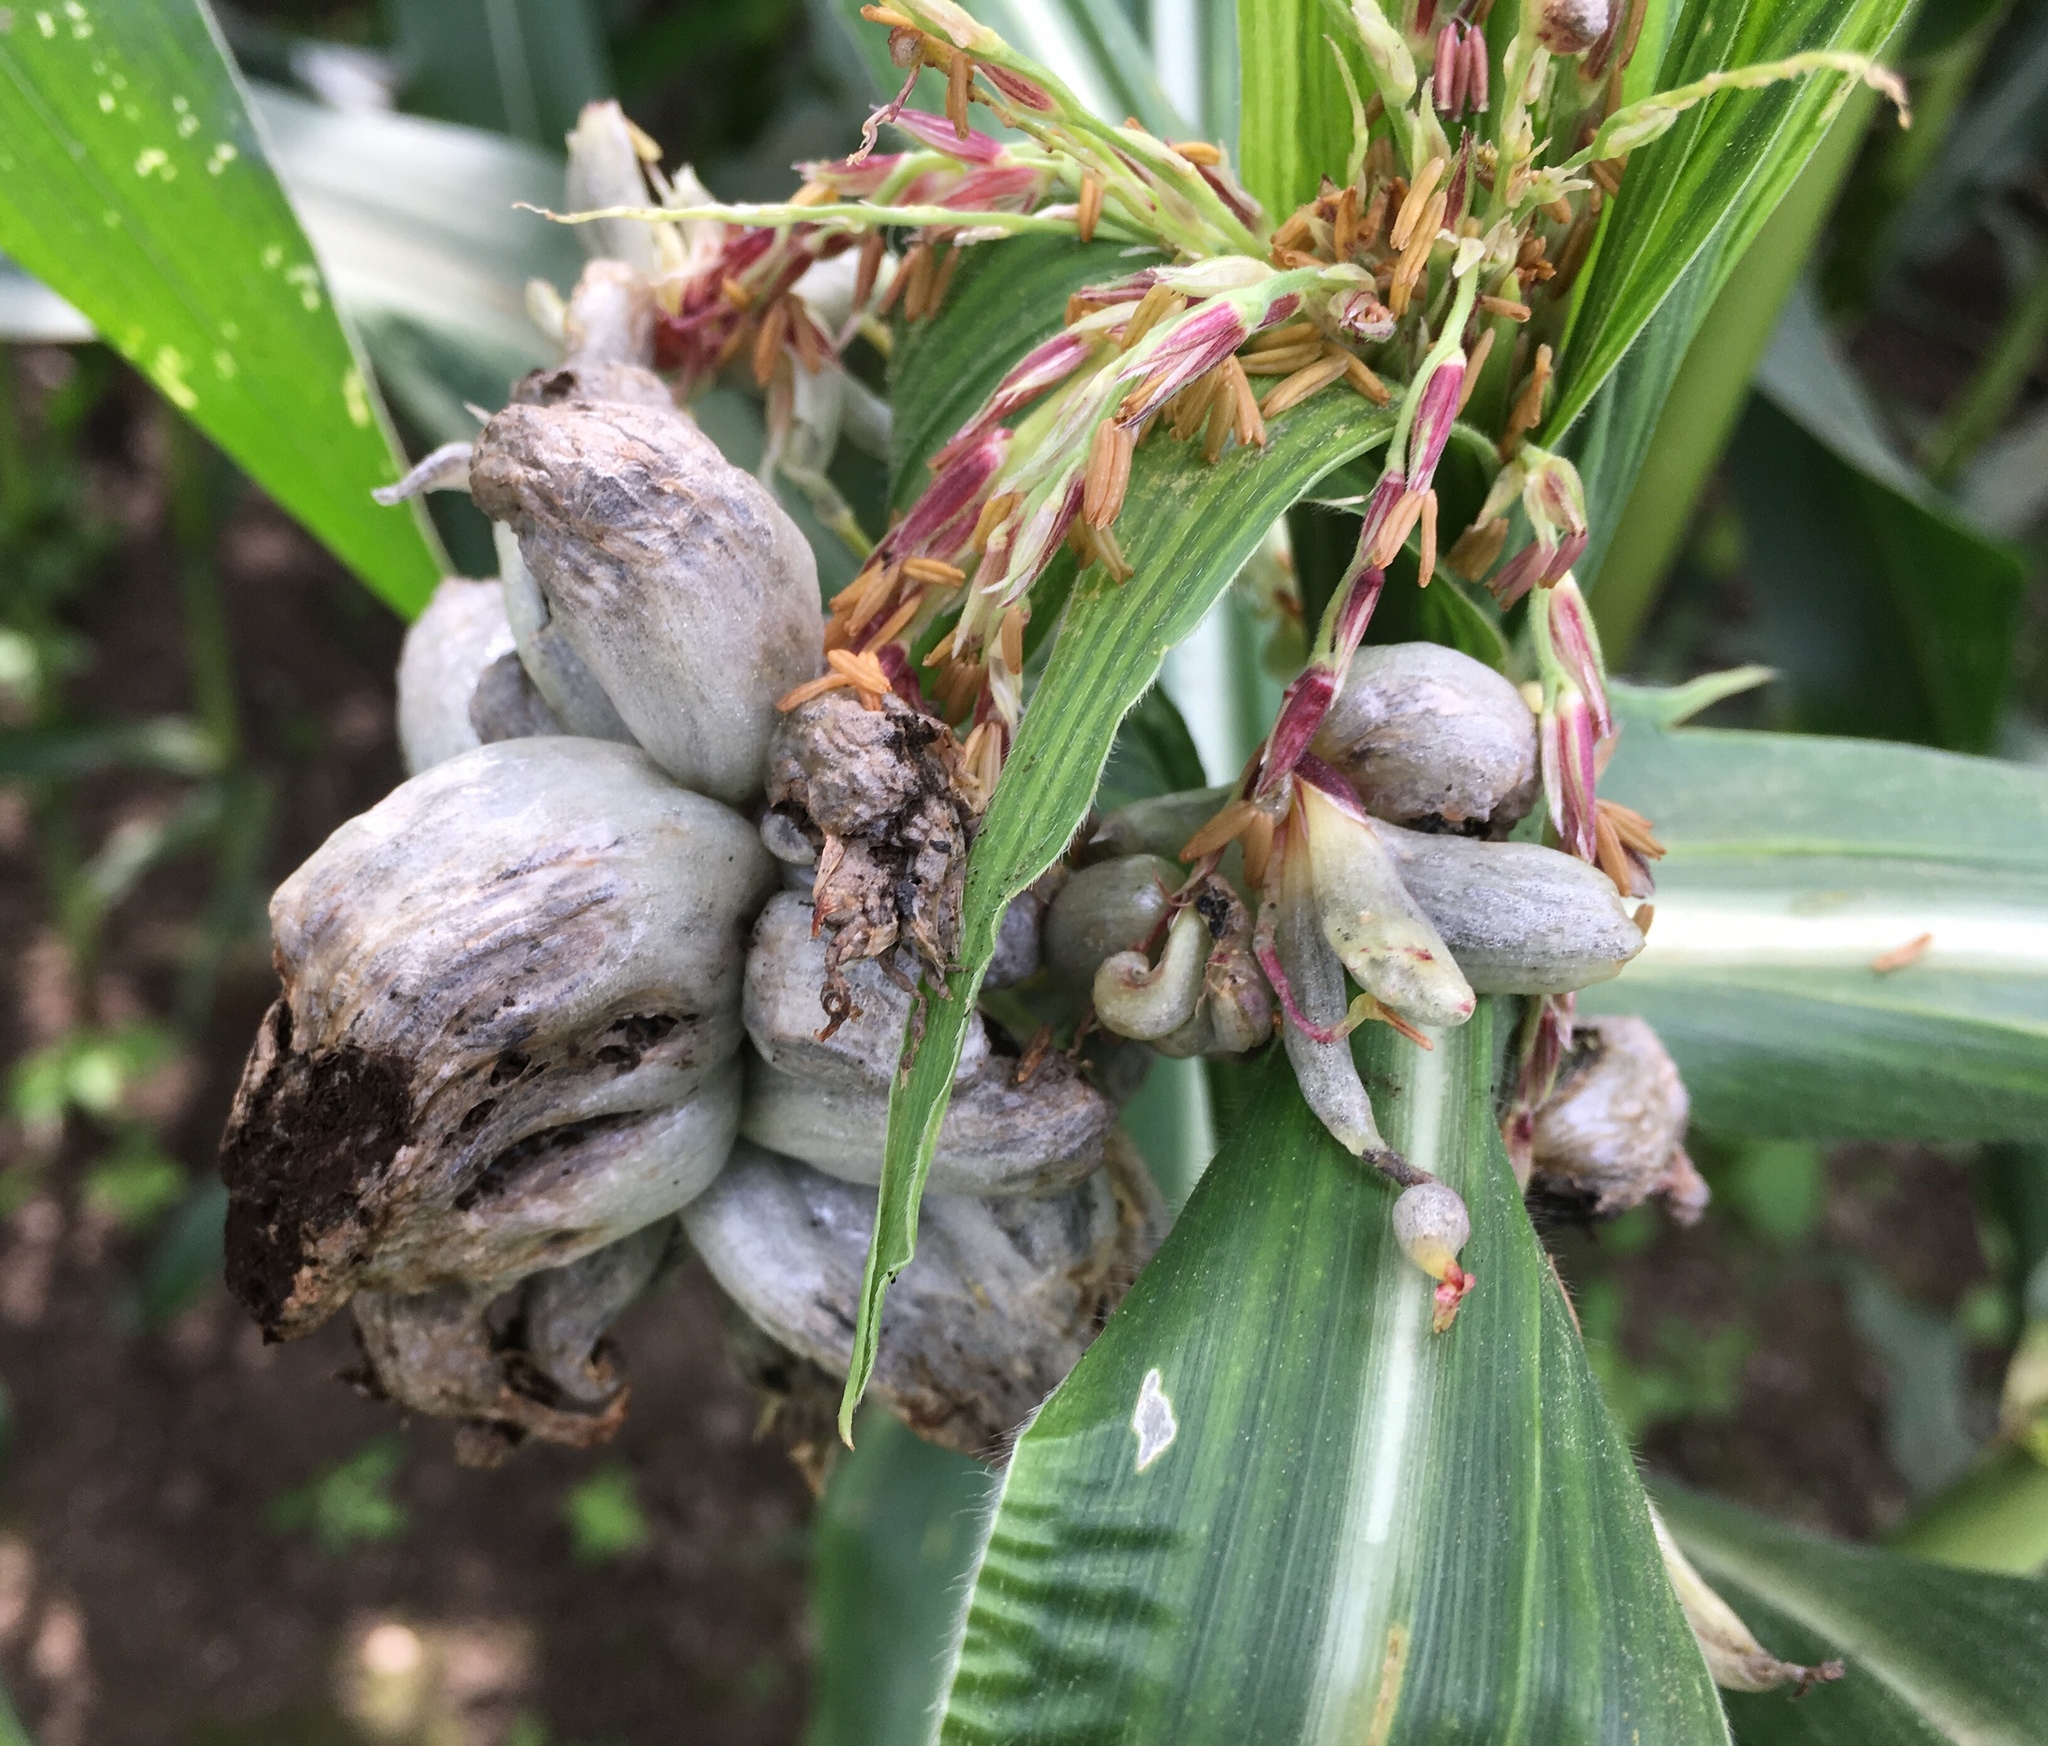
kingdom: Fungi
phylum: Basidiomycota
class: Ustilaginomycetes
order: Ustilaginales
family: Ustilaginaceae
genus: Mycosarcoma
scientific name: Mycosarcoma maydis
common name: Corn smut
